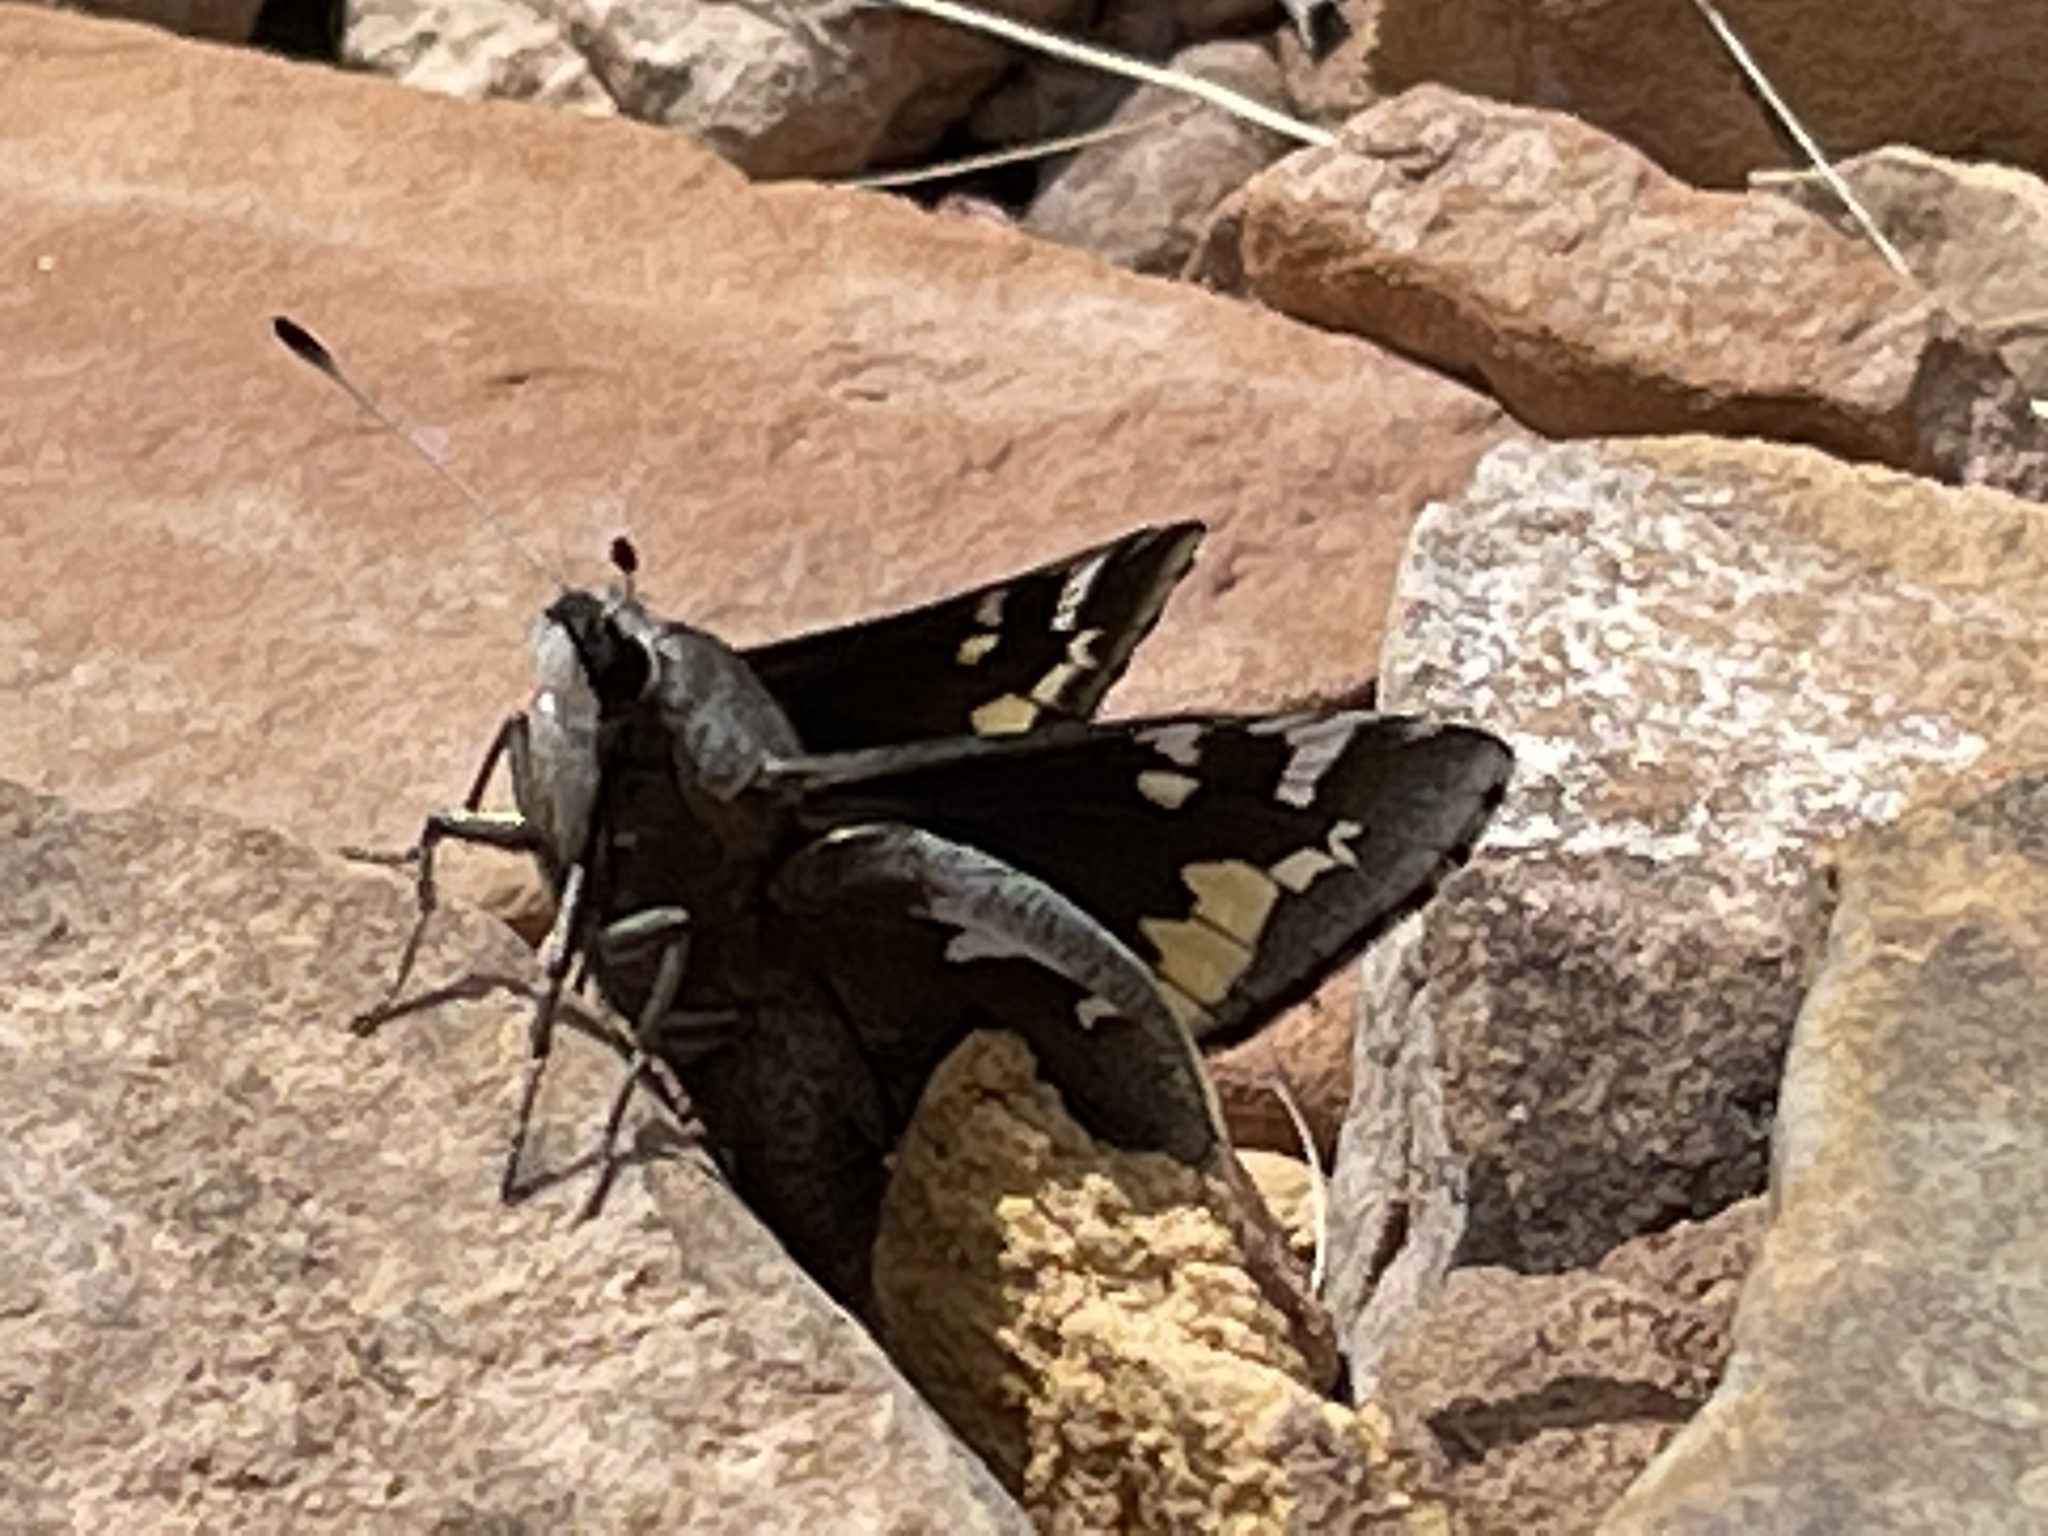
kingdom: Animalia
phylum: Arthropoda
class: Insecta
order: Lepidoptera
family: Hesperiidae
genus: Megathymus
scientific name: Megathymus yuccae
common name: Yucca giant-skipper
